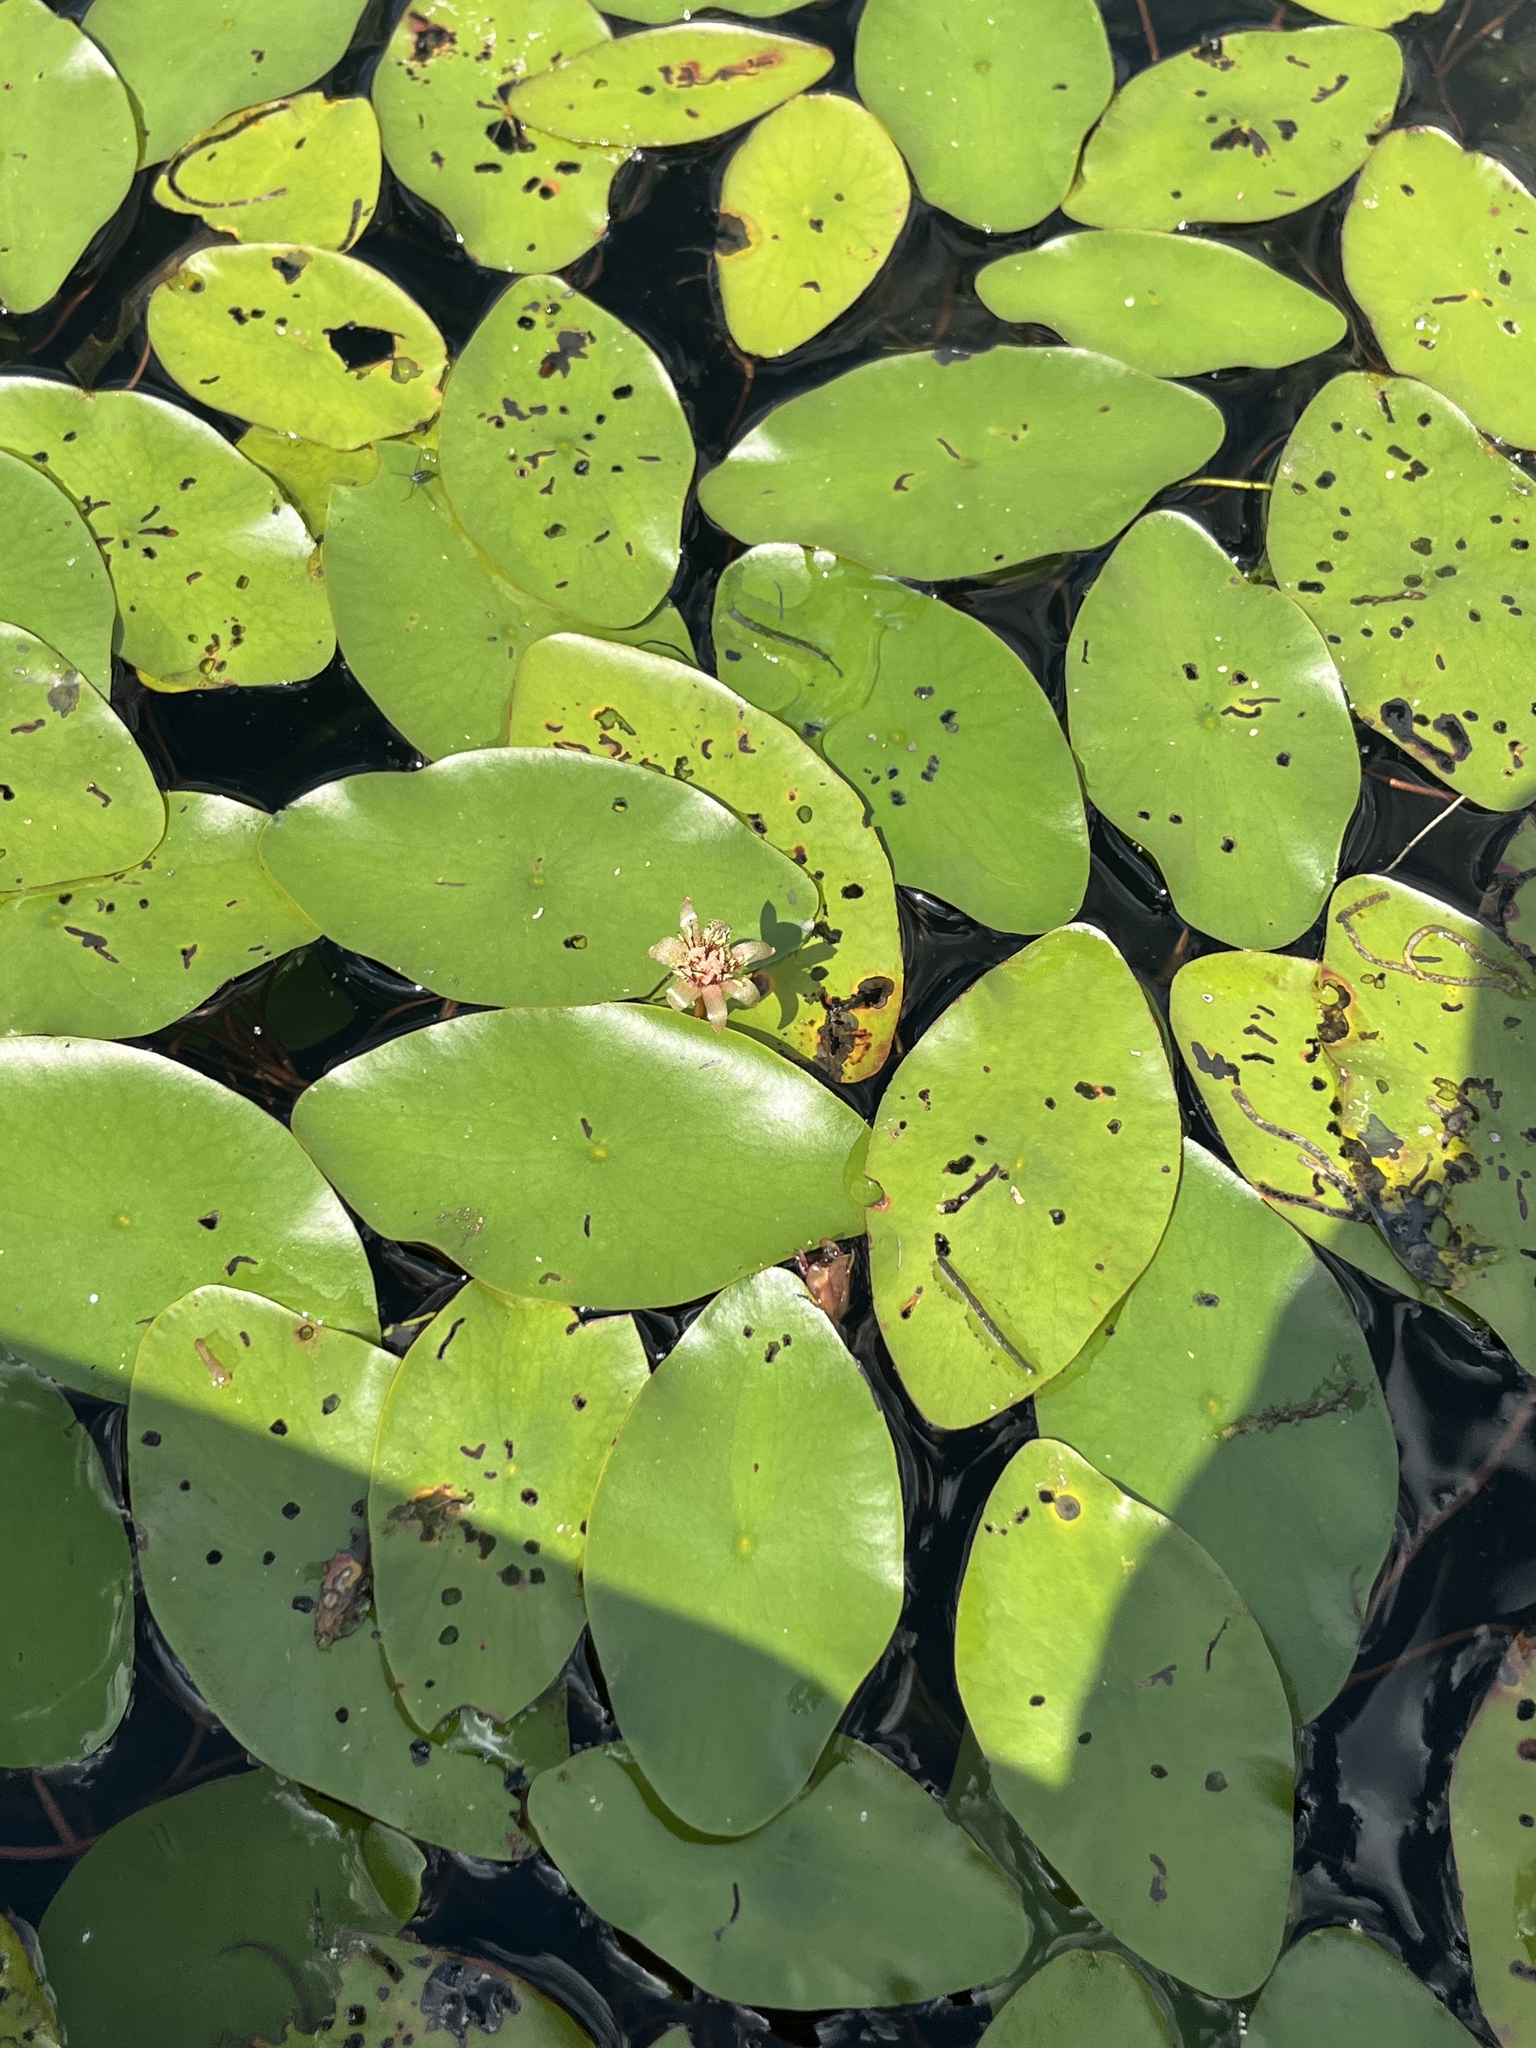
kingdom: Plantae
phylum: Tracheophyta
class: Magnoliopsida
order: Nymphaeales
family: Cabombaceae
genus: Brasenia
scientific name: Brasenia schreberi
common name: Water-shield
